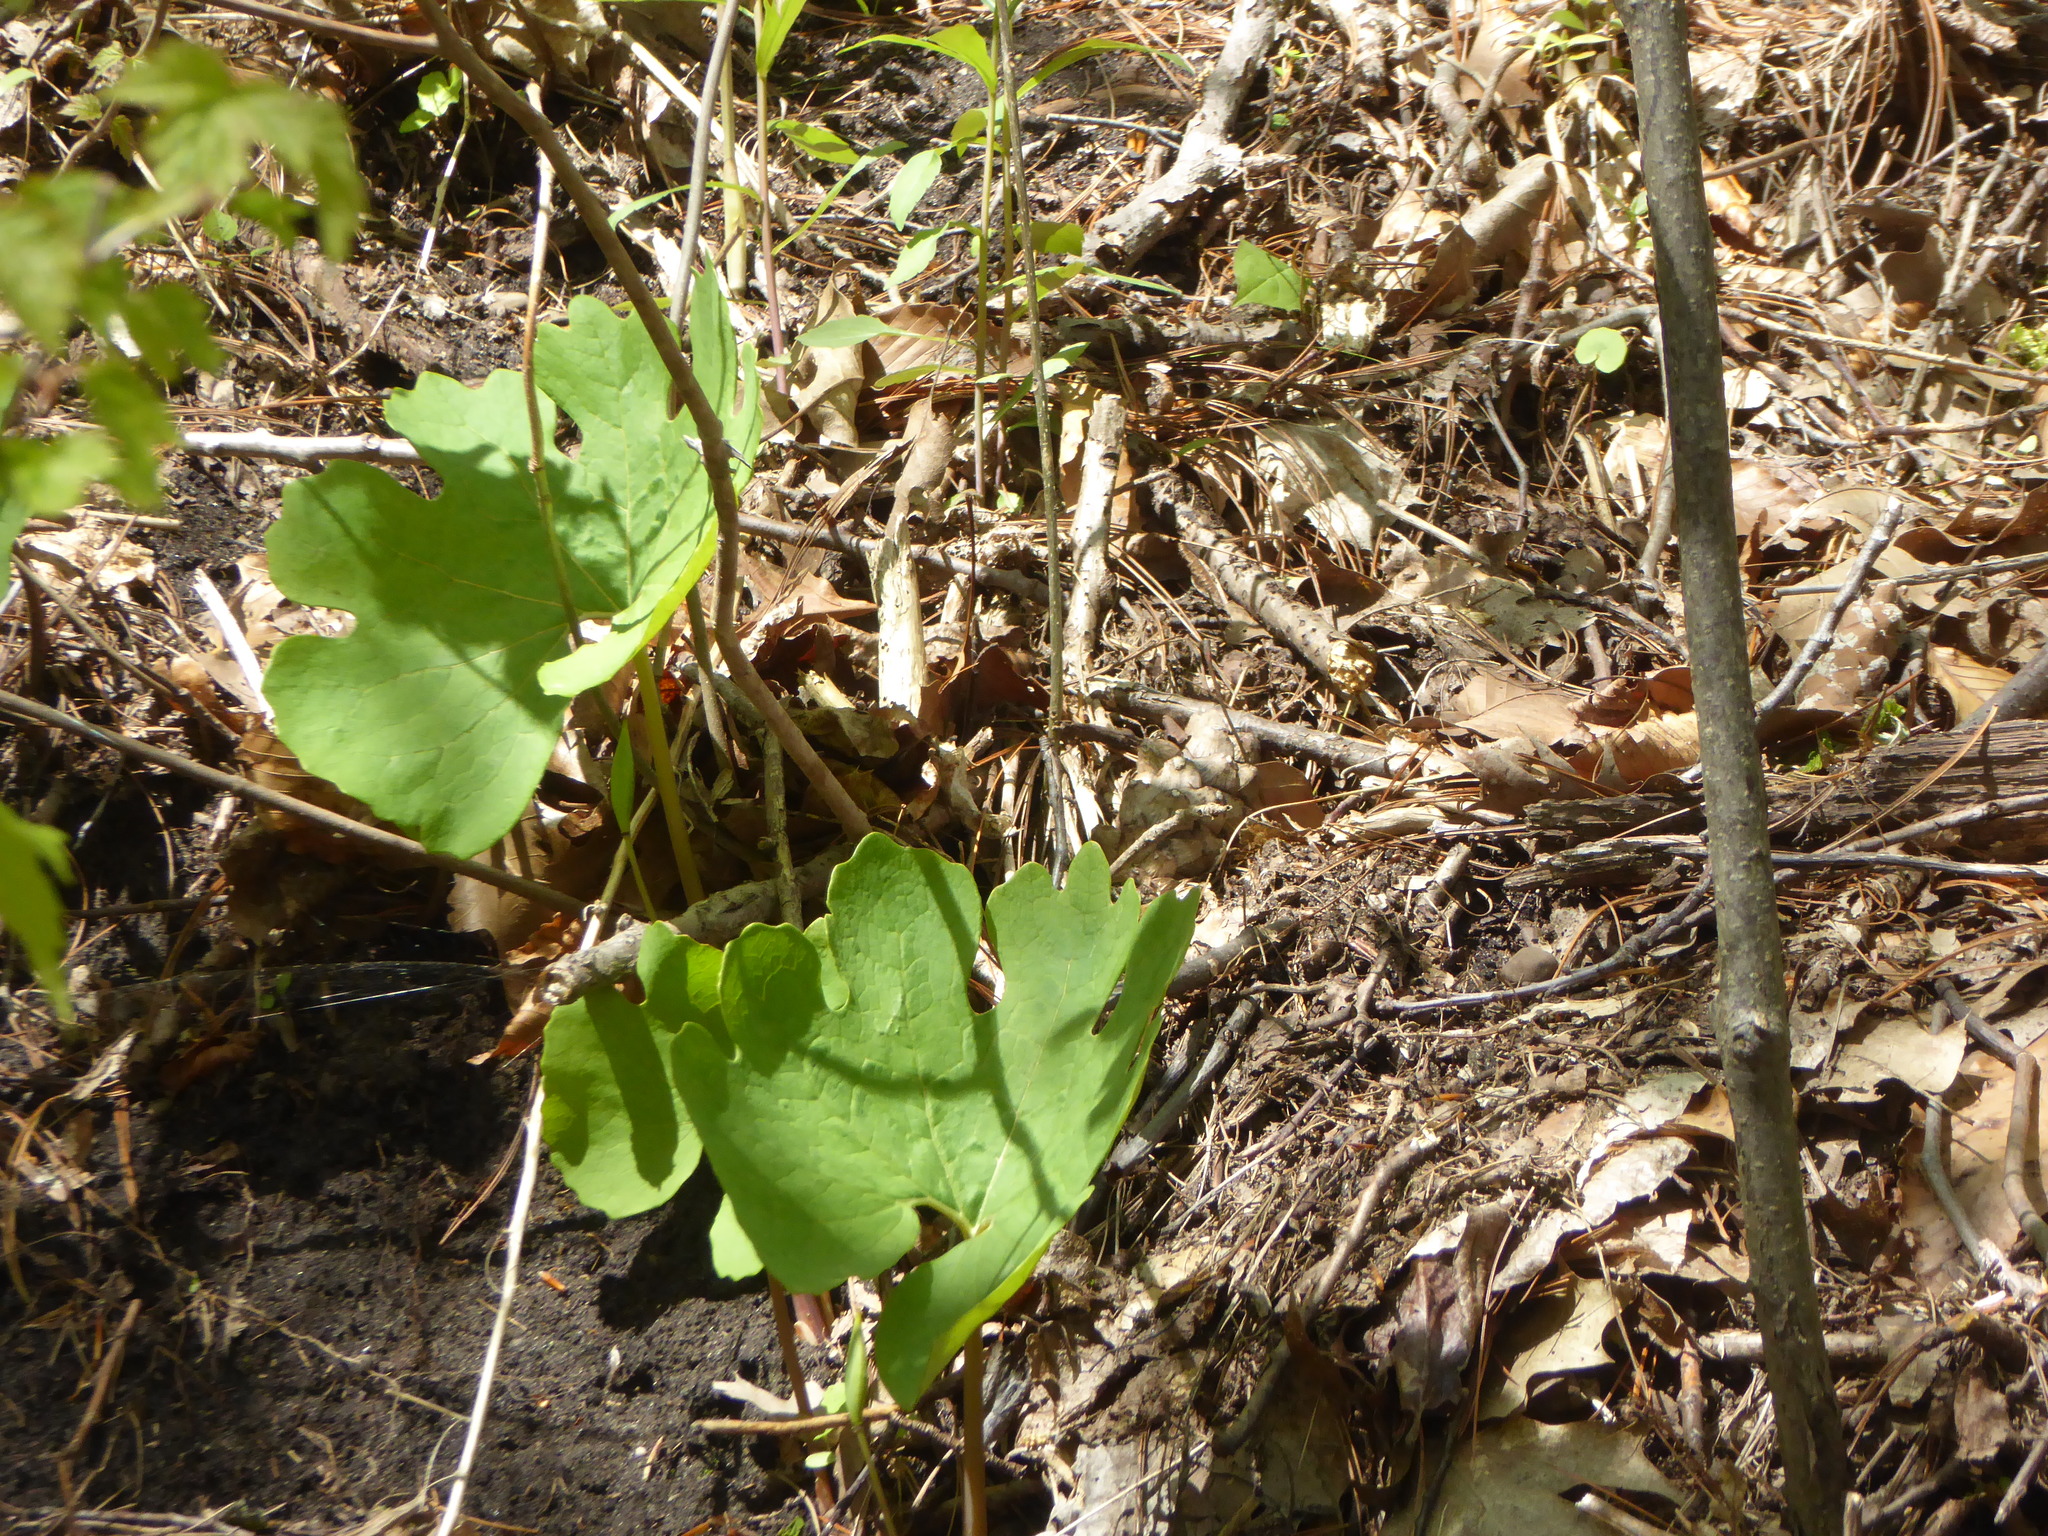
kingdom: Plantae
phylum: Tracheophyta
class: Magnoliopsida
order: Ranunculales
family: Papaveraceae
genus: Sanguinaria
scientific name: Sanguinaria canadensis
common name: Bloodroot
